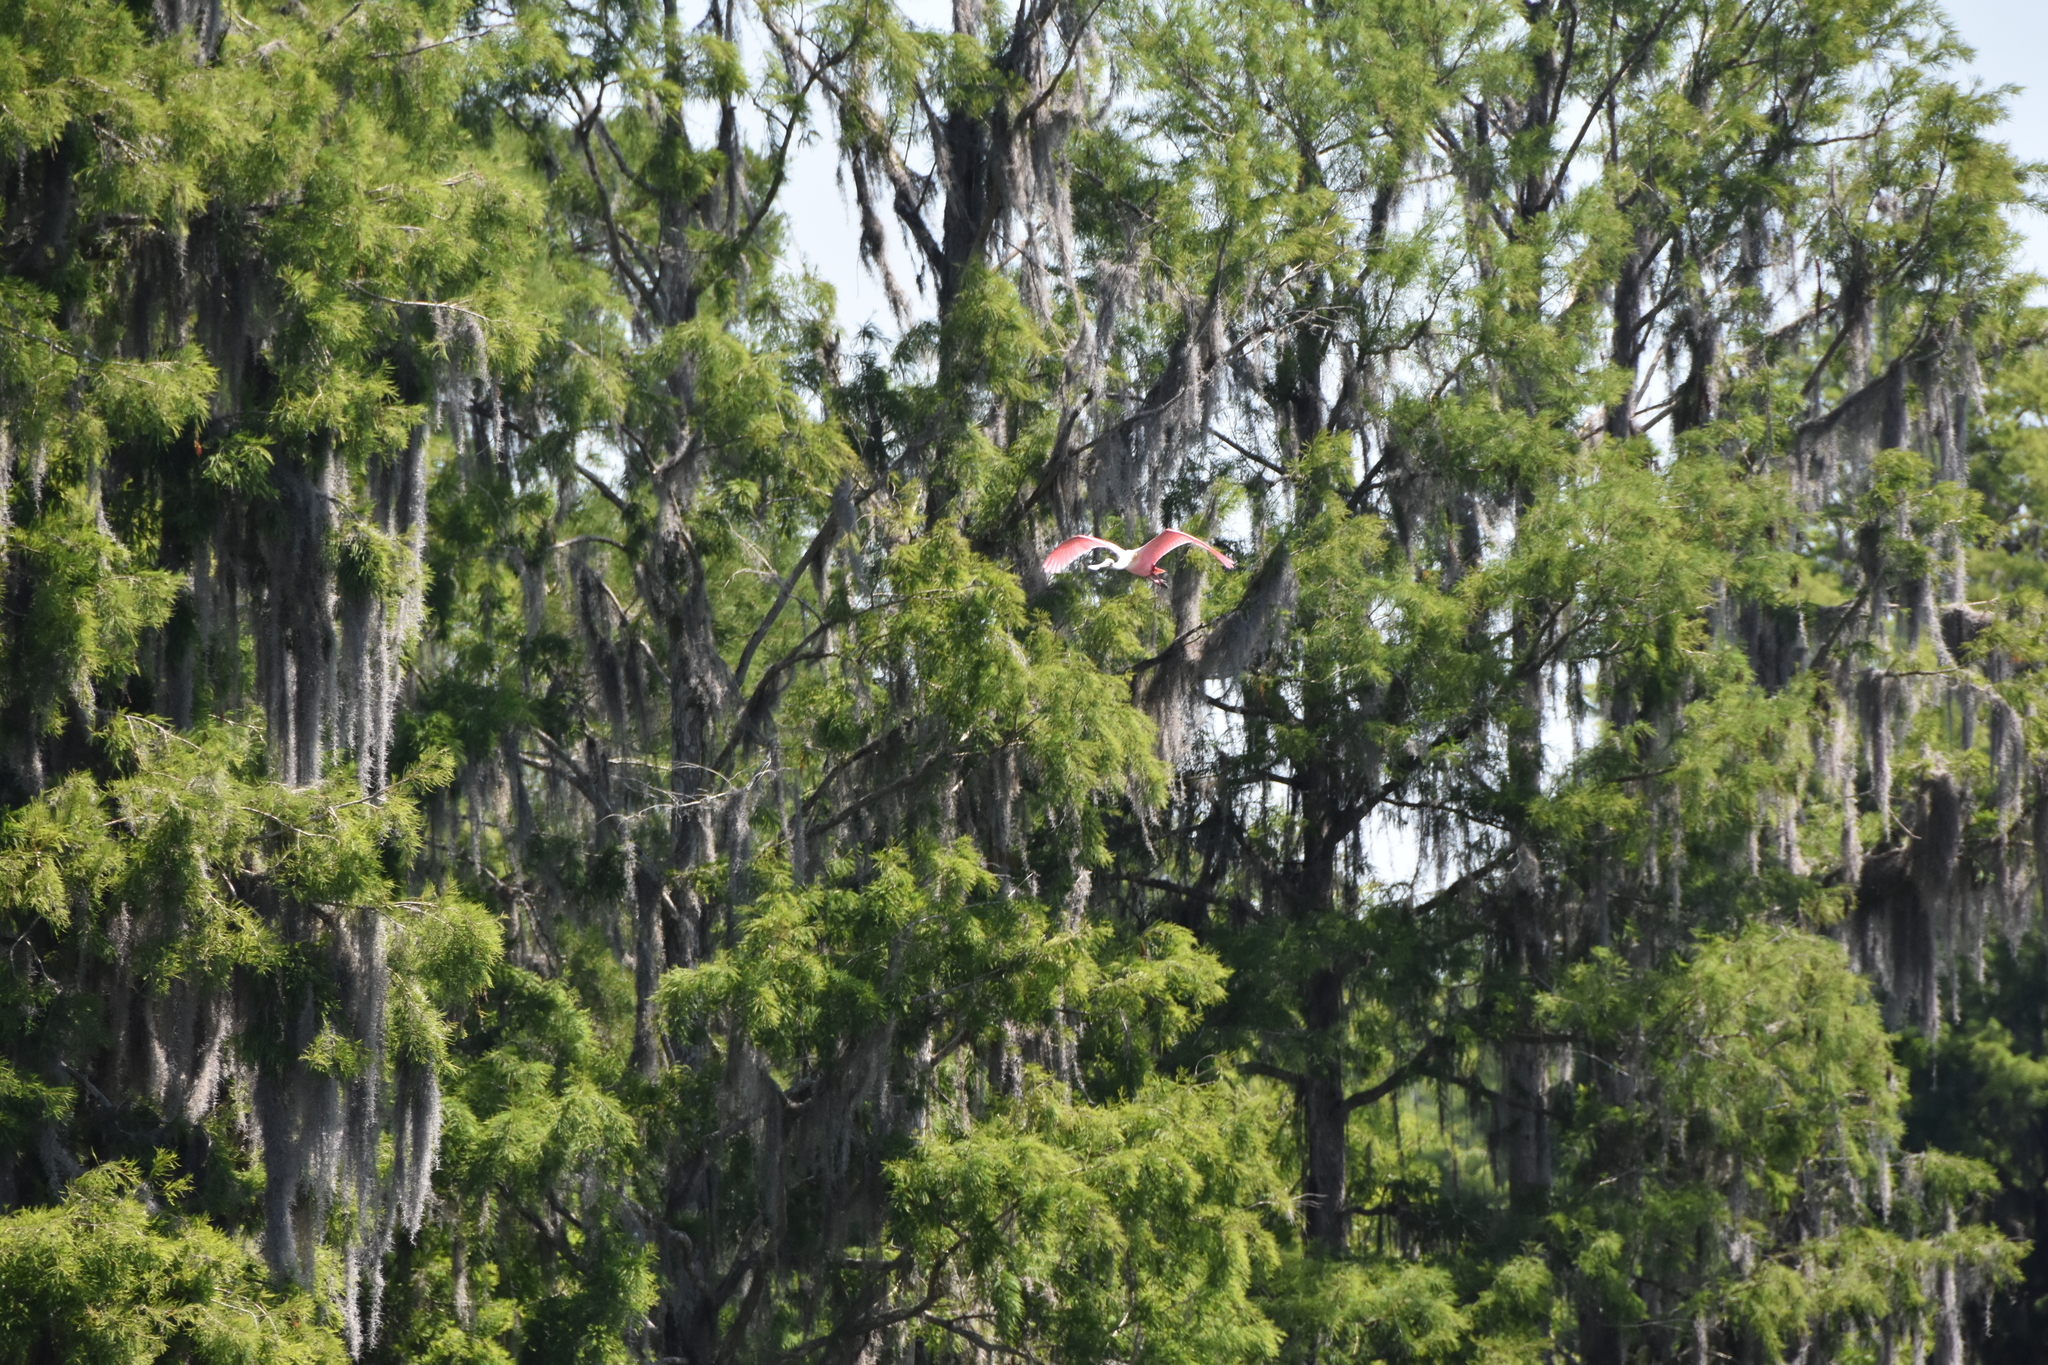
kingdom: Animalia
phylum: Chordata
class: Aves
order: Pelecaniformes
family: Threskiornithidae
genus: Platalea
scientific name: Platalea ajaja
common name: Roseate spoonbill
